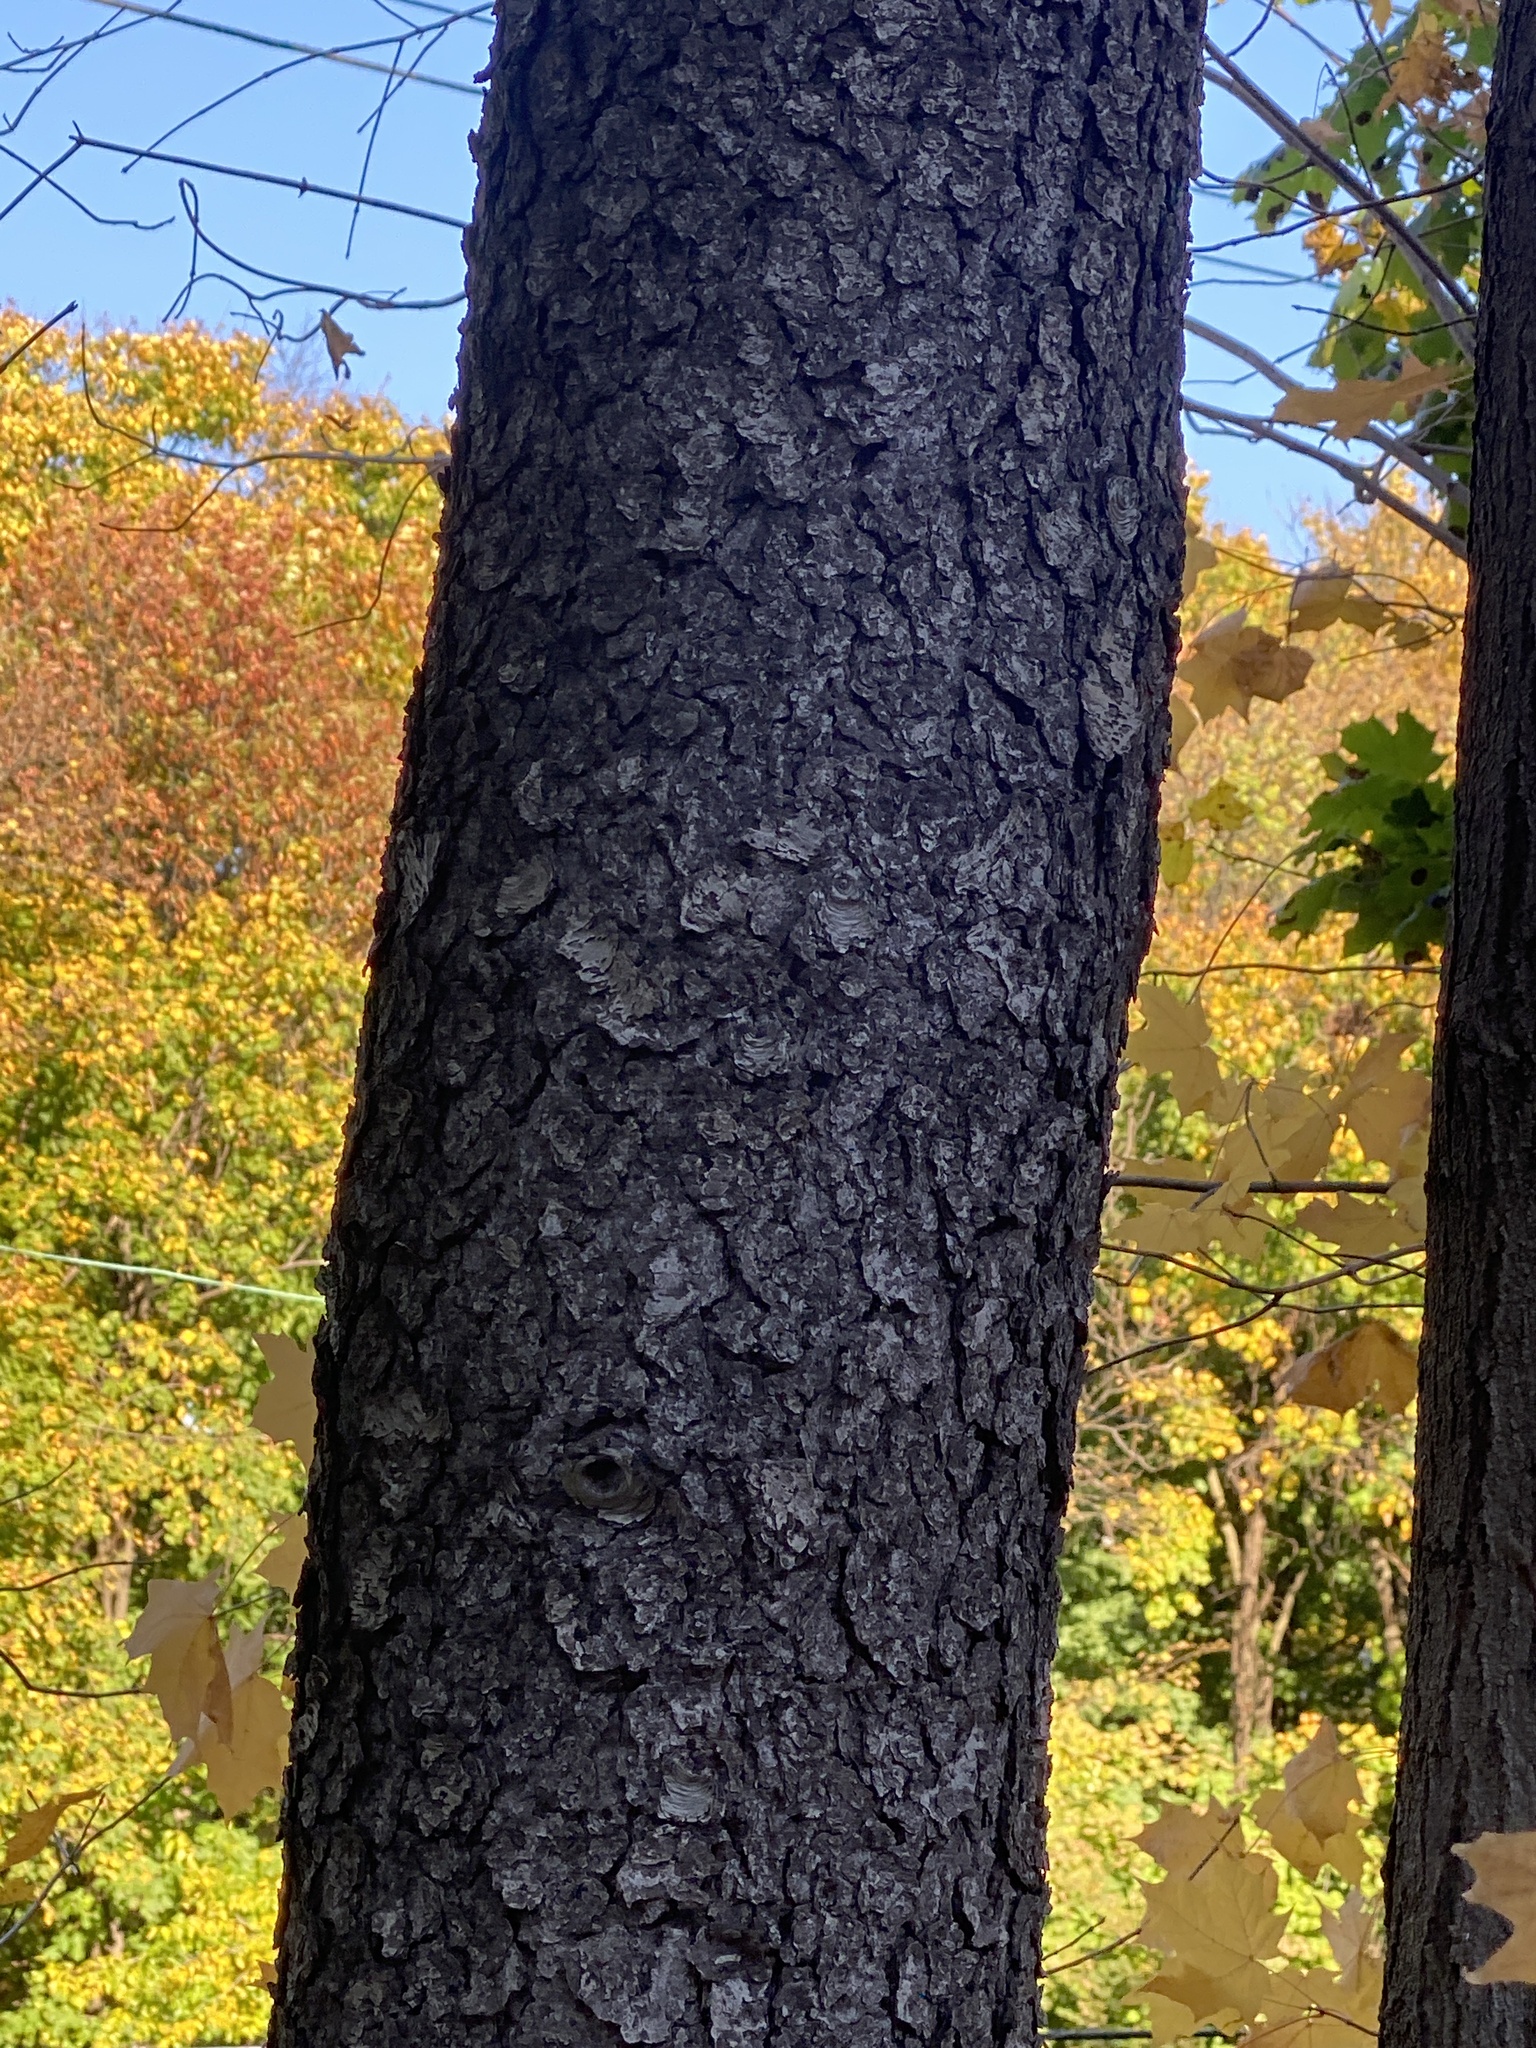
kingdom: Plantae
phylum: Tracheophyta
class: Magnoliopsida
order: Rosales
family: Rosaceae
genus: Prunus
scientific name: Prunus serotina
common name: Black cherry
